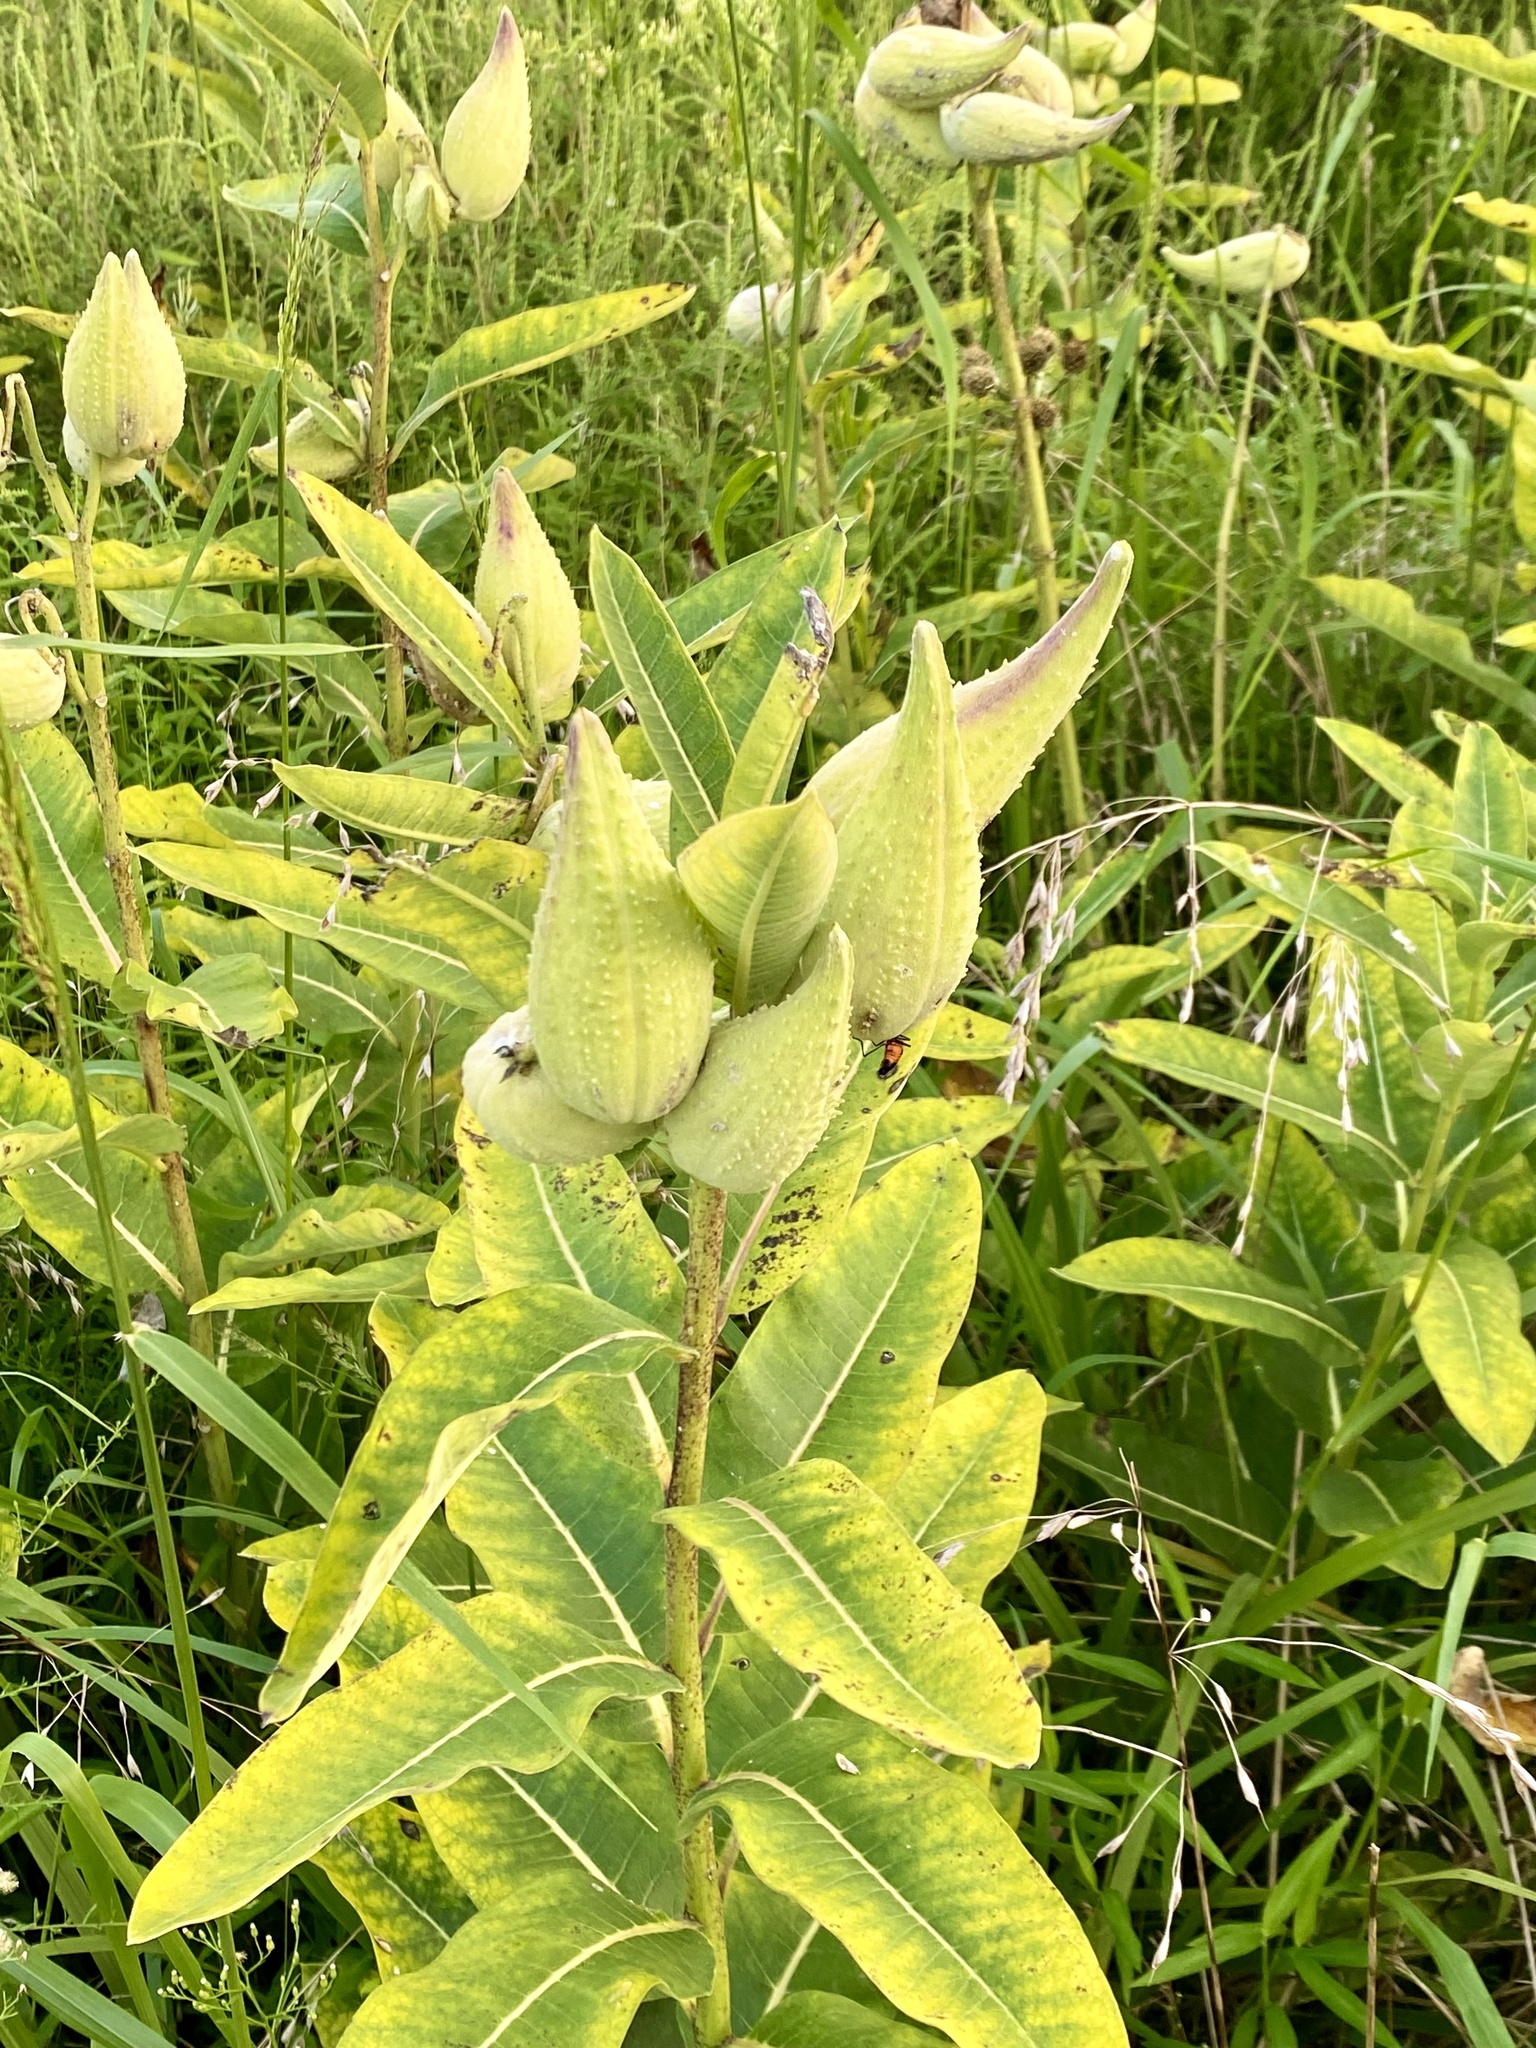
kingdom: Plantae
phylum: Tracheophyta
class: Magnoliopsida
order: Gentianales
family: Apocynaceae
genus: Asclepias
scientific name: Asclepias syriaca
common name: Common milkweed
